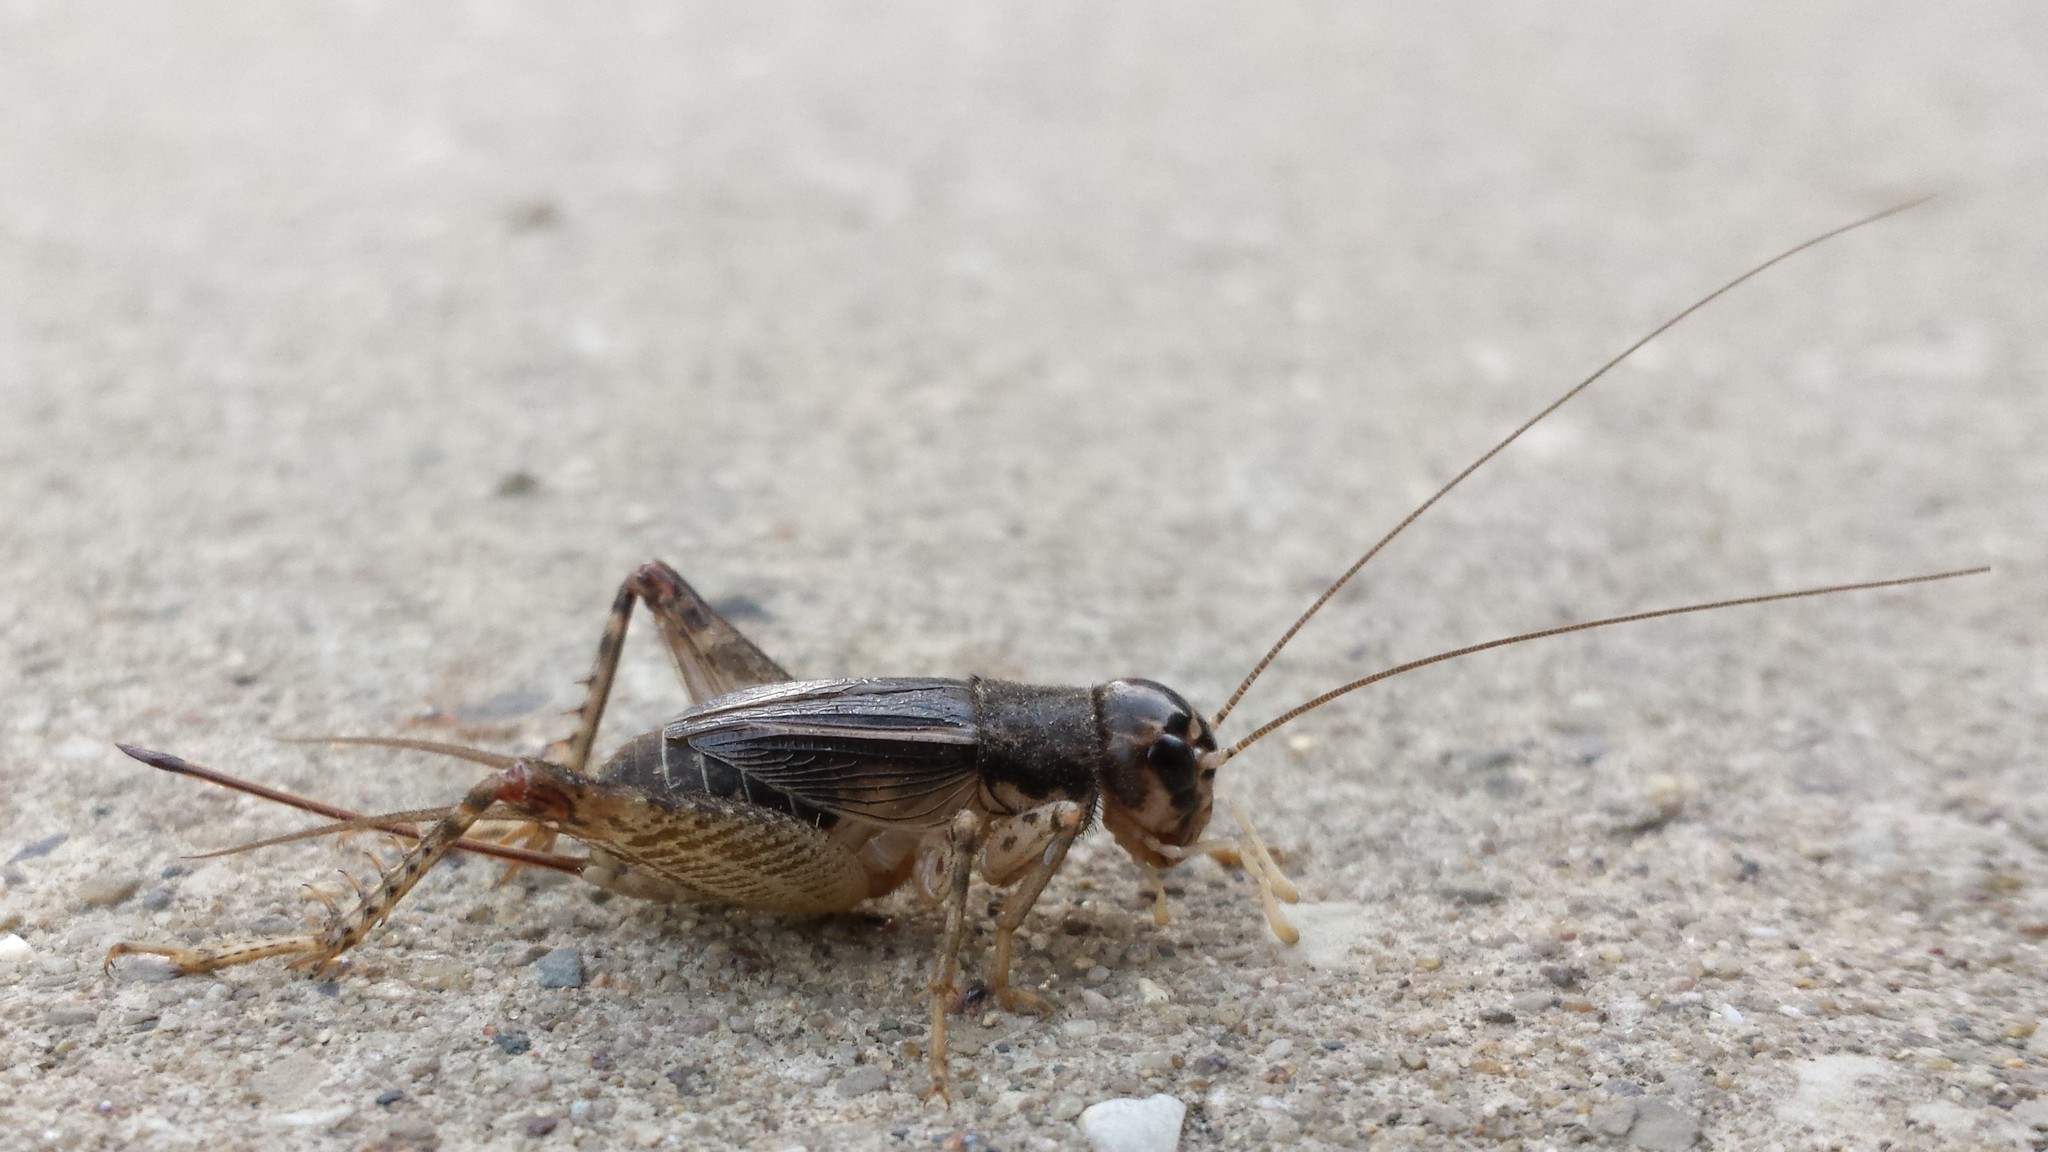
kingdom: Animalia
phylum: Arthropoda
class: Insecta
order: Orthoptera
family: Gryllidae
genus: Velarifictorus
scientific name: Velarifictorus micado
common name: Japanese burrowing cricket
